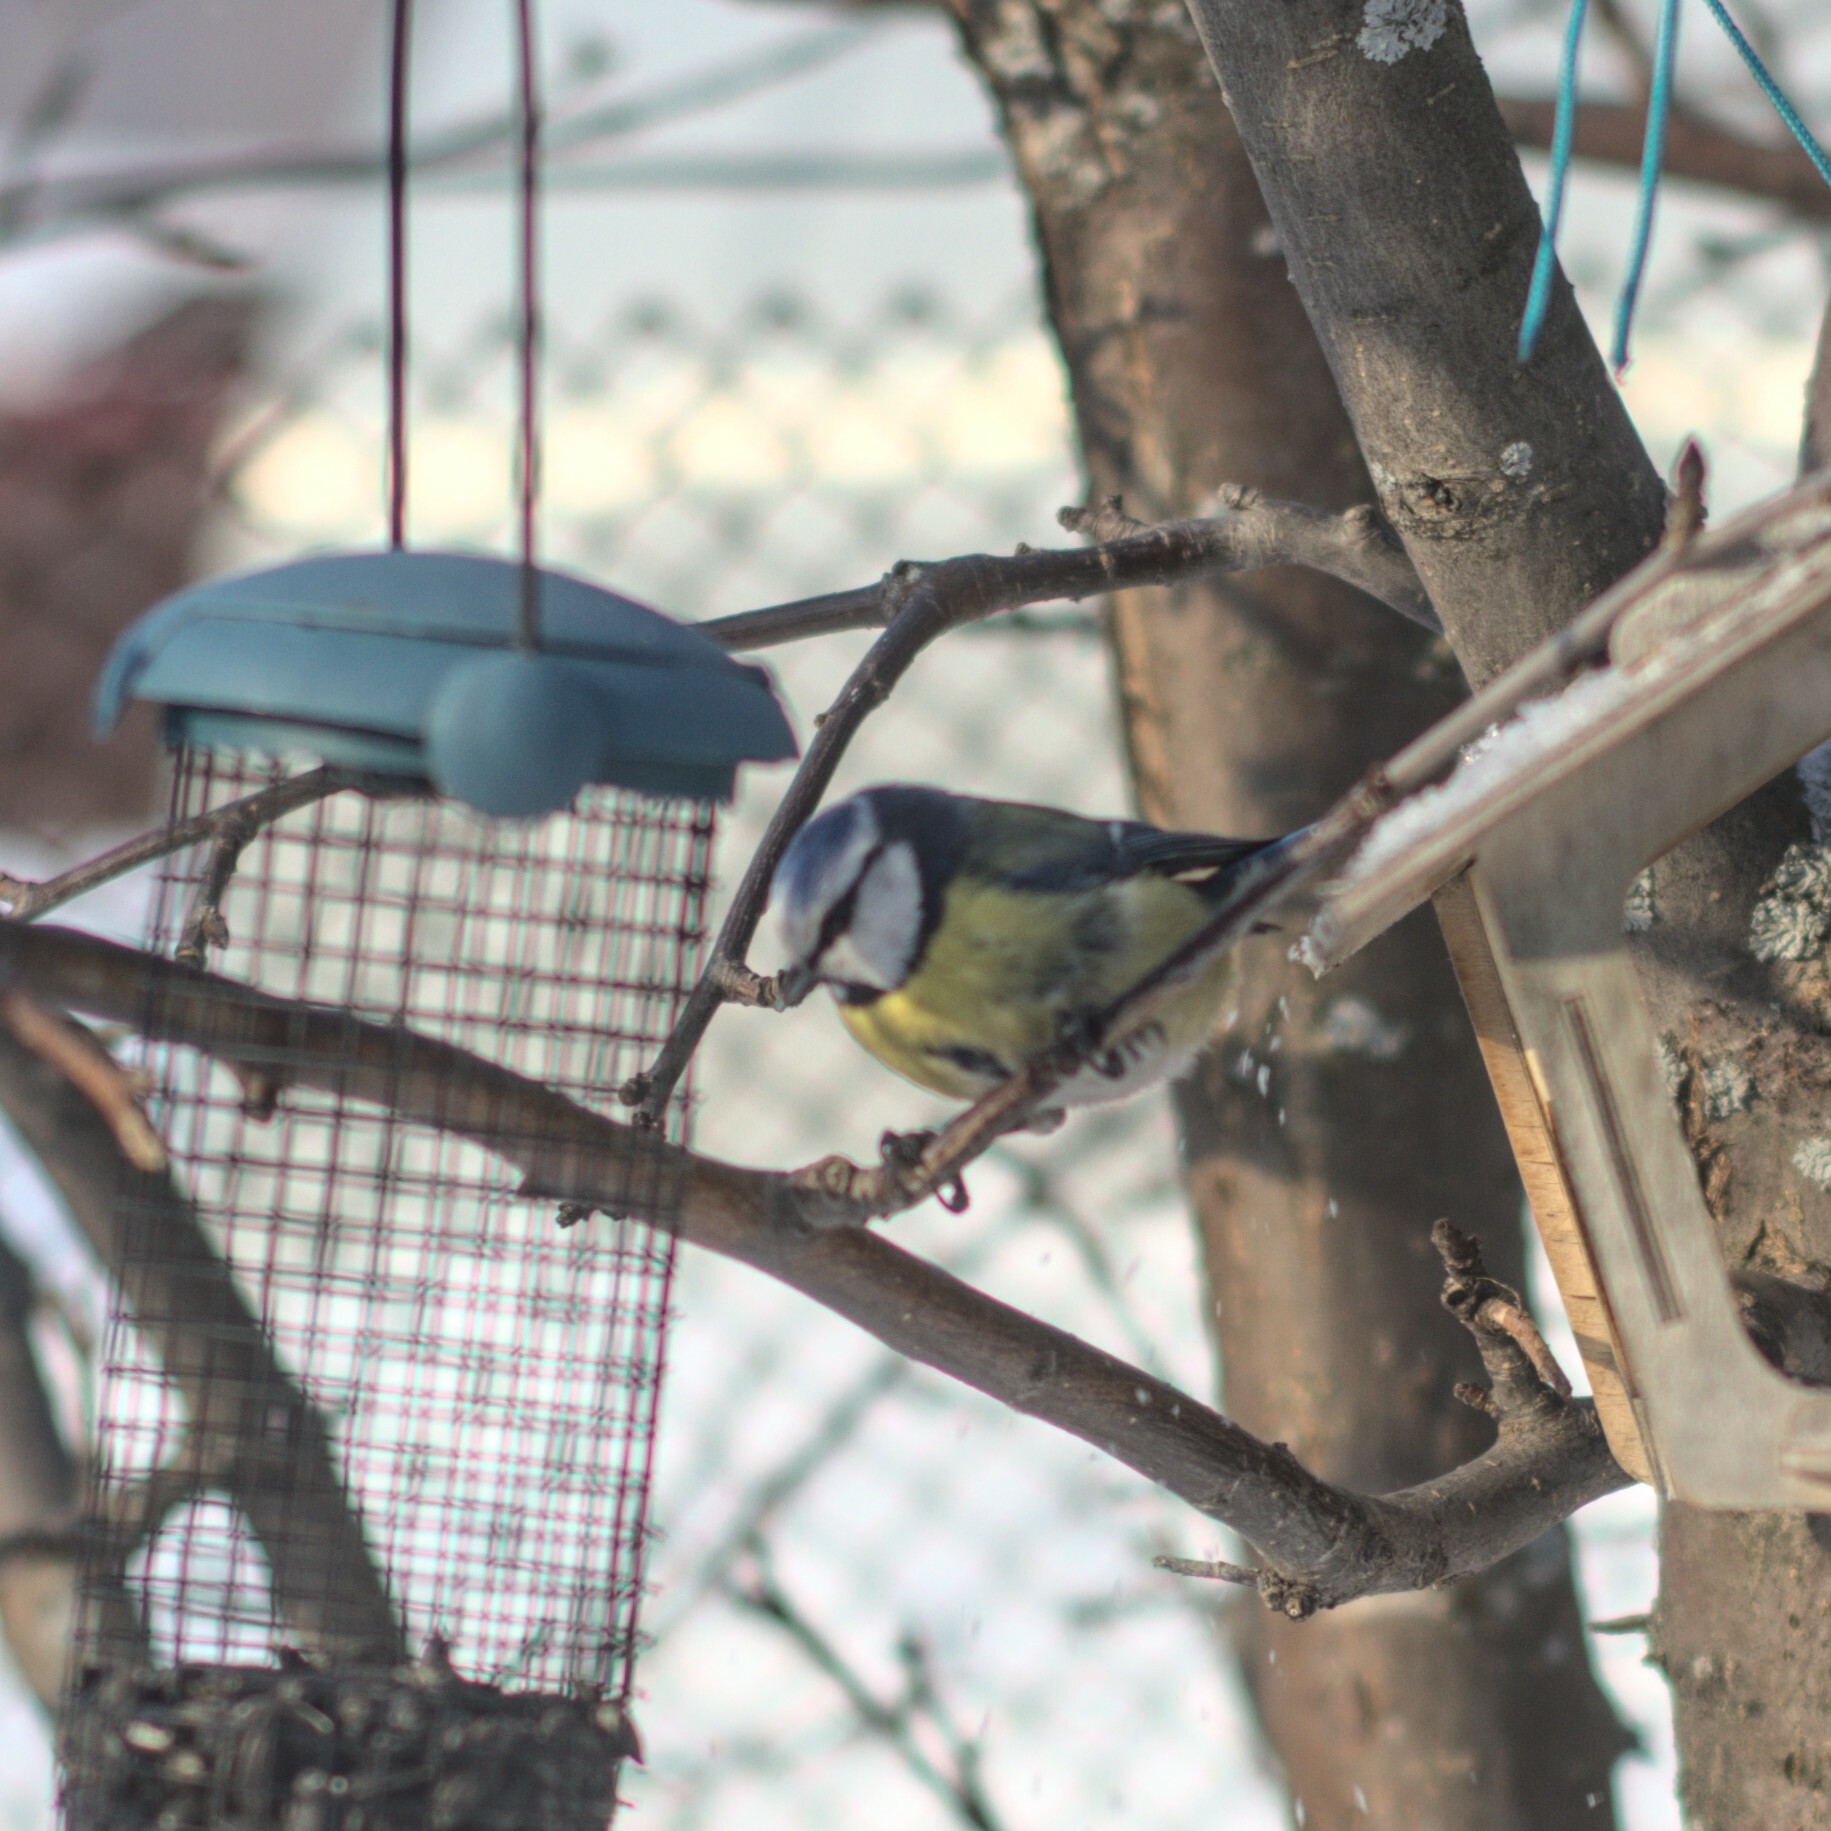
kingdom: Animalia
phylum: Chordata
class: Aves
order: Passeriformes
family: Paridae
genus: Cyanistes
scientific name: Cyanistes caeruleus
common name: Eurasian blue tit
